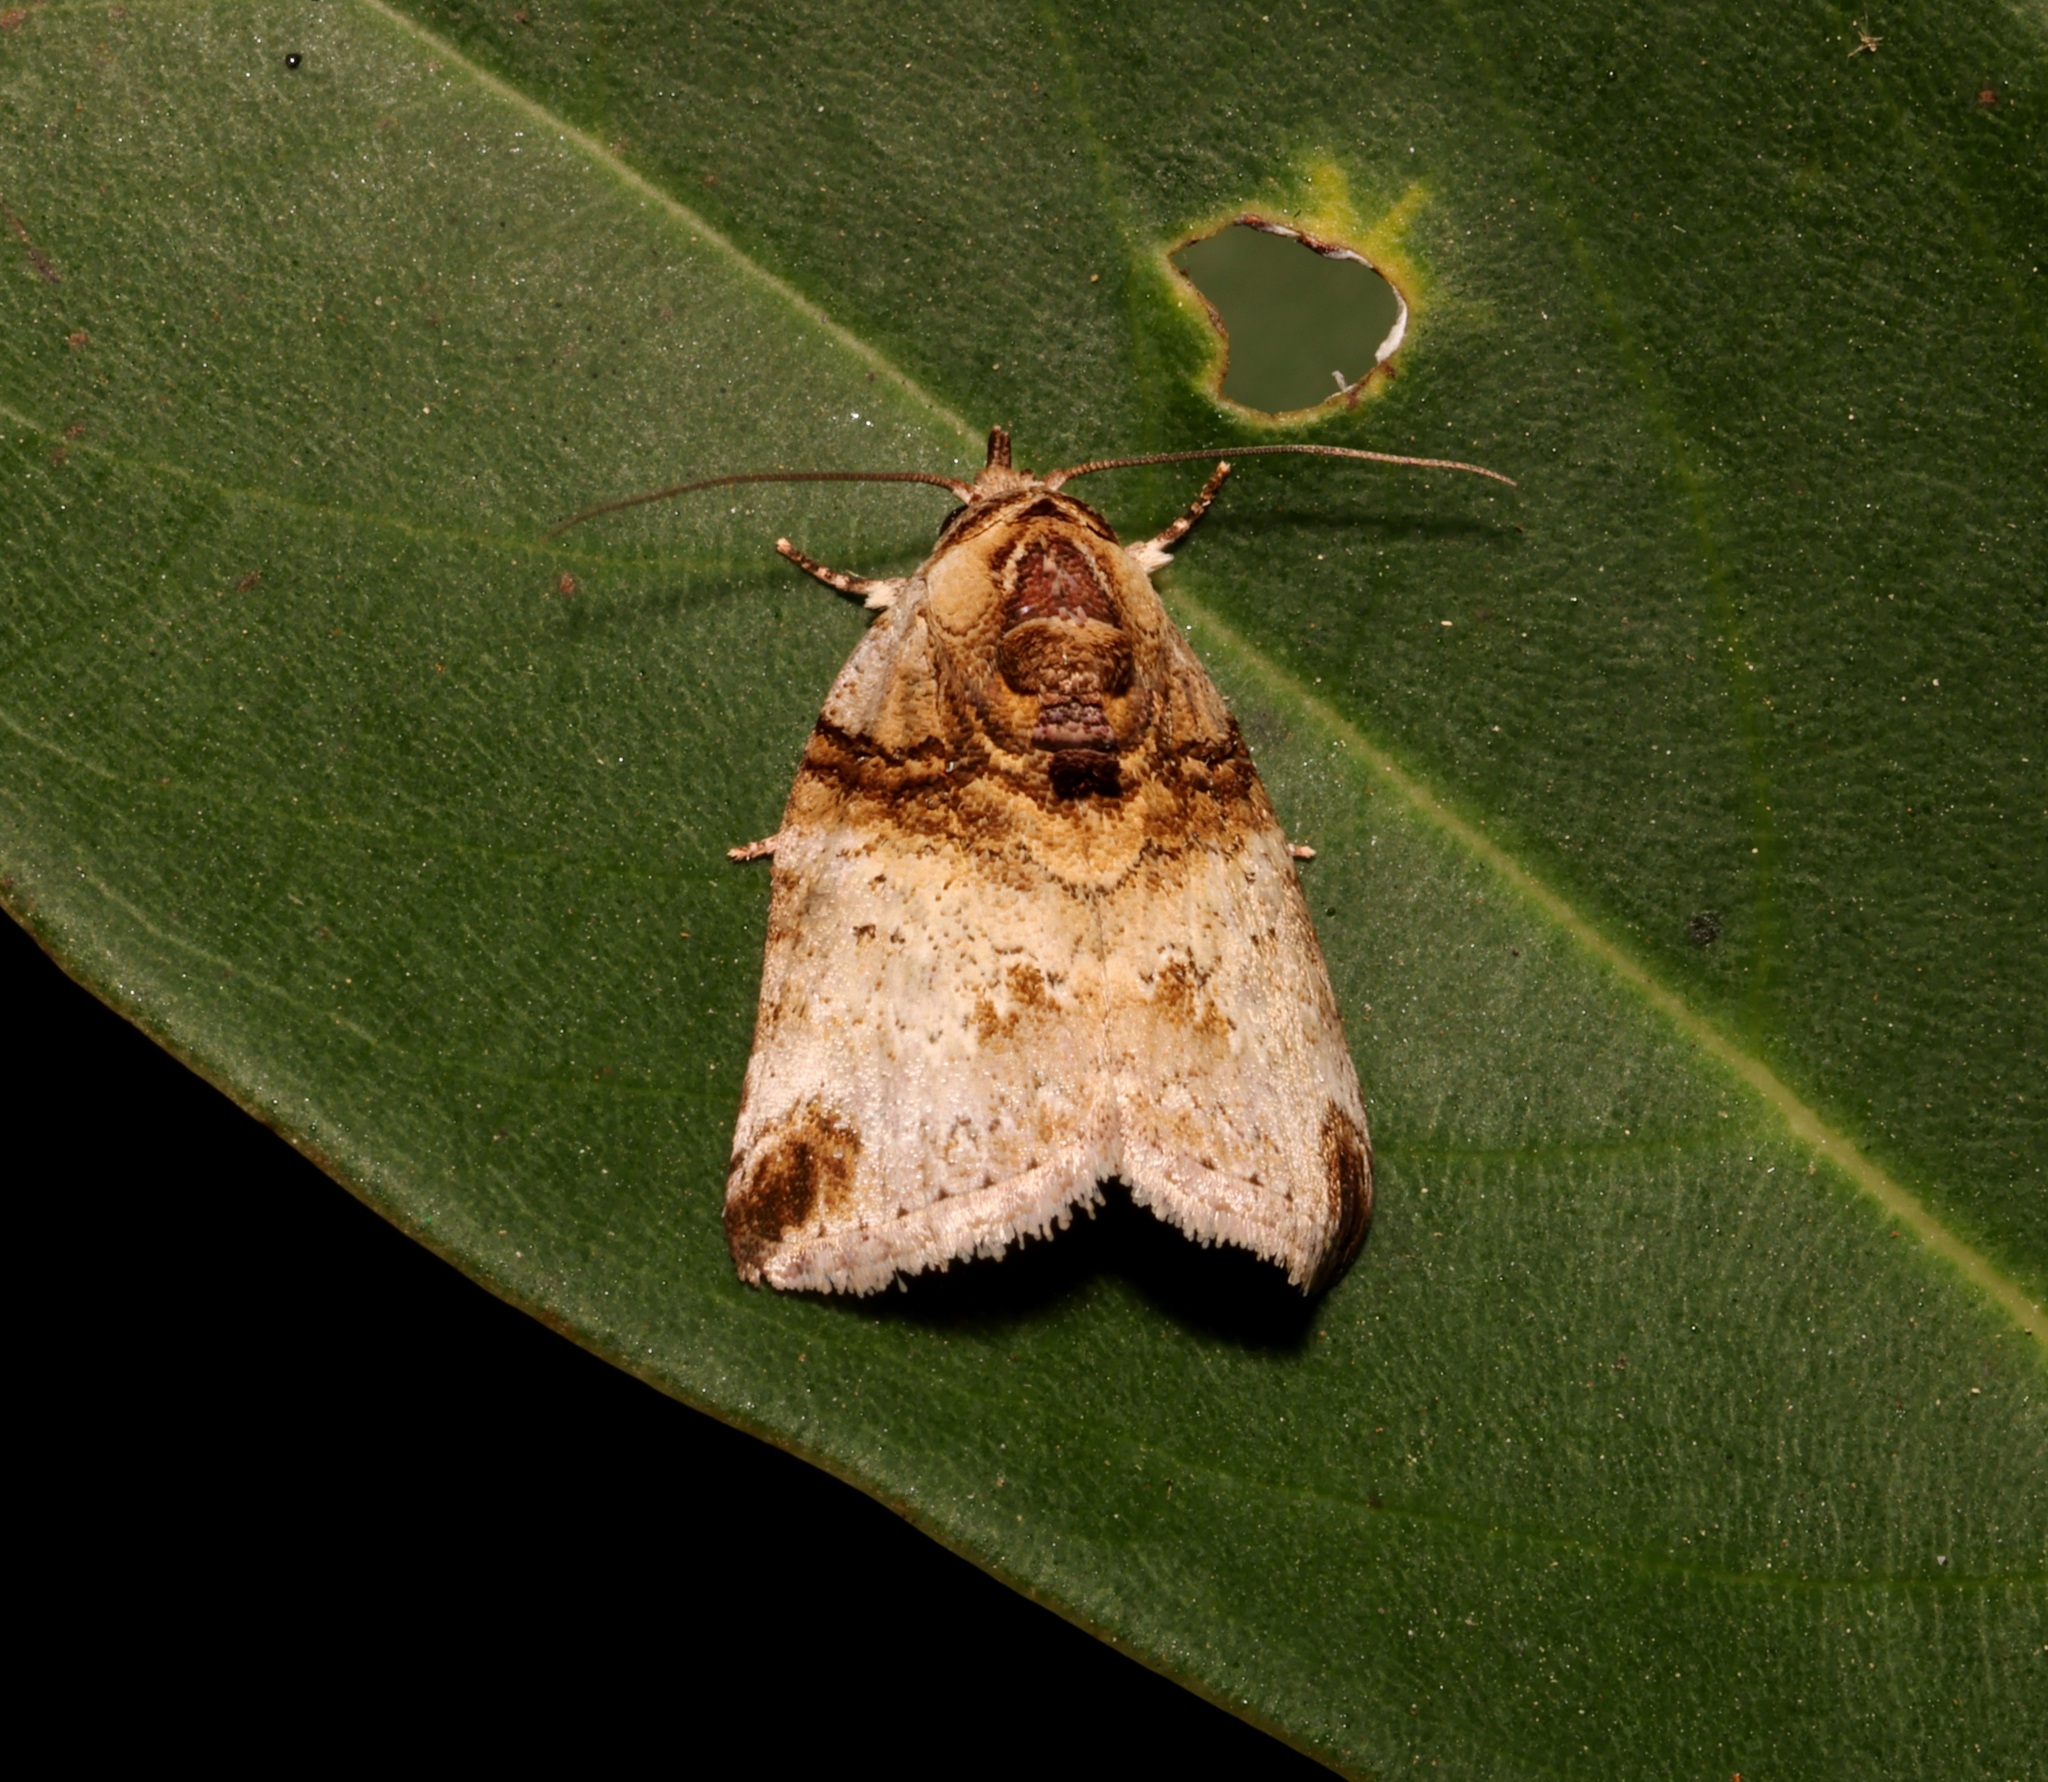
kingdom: Animalia
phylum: Arthropoda
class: Insecta
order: Lepidoptera
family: Nolidae
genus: Garella
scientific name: Garella curiosa
